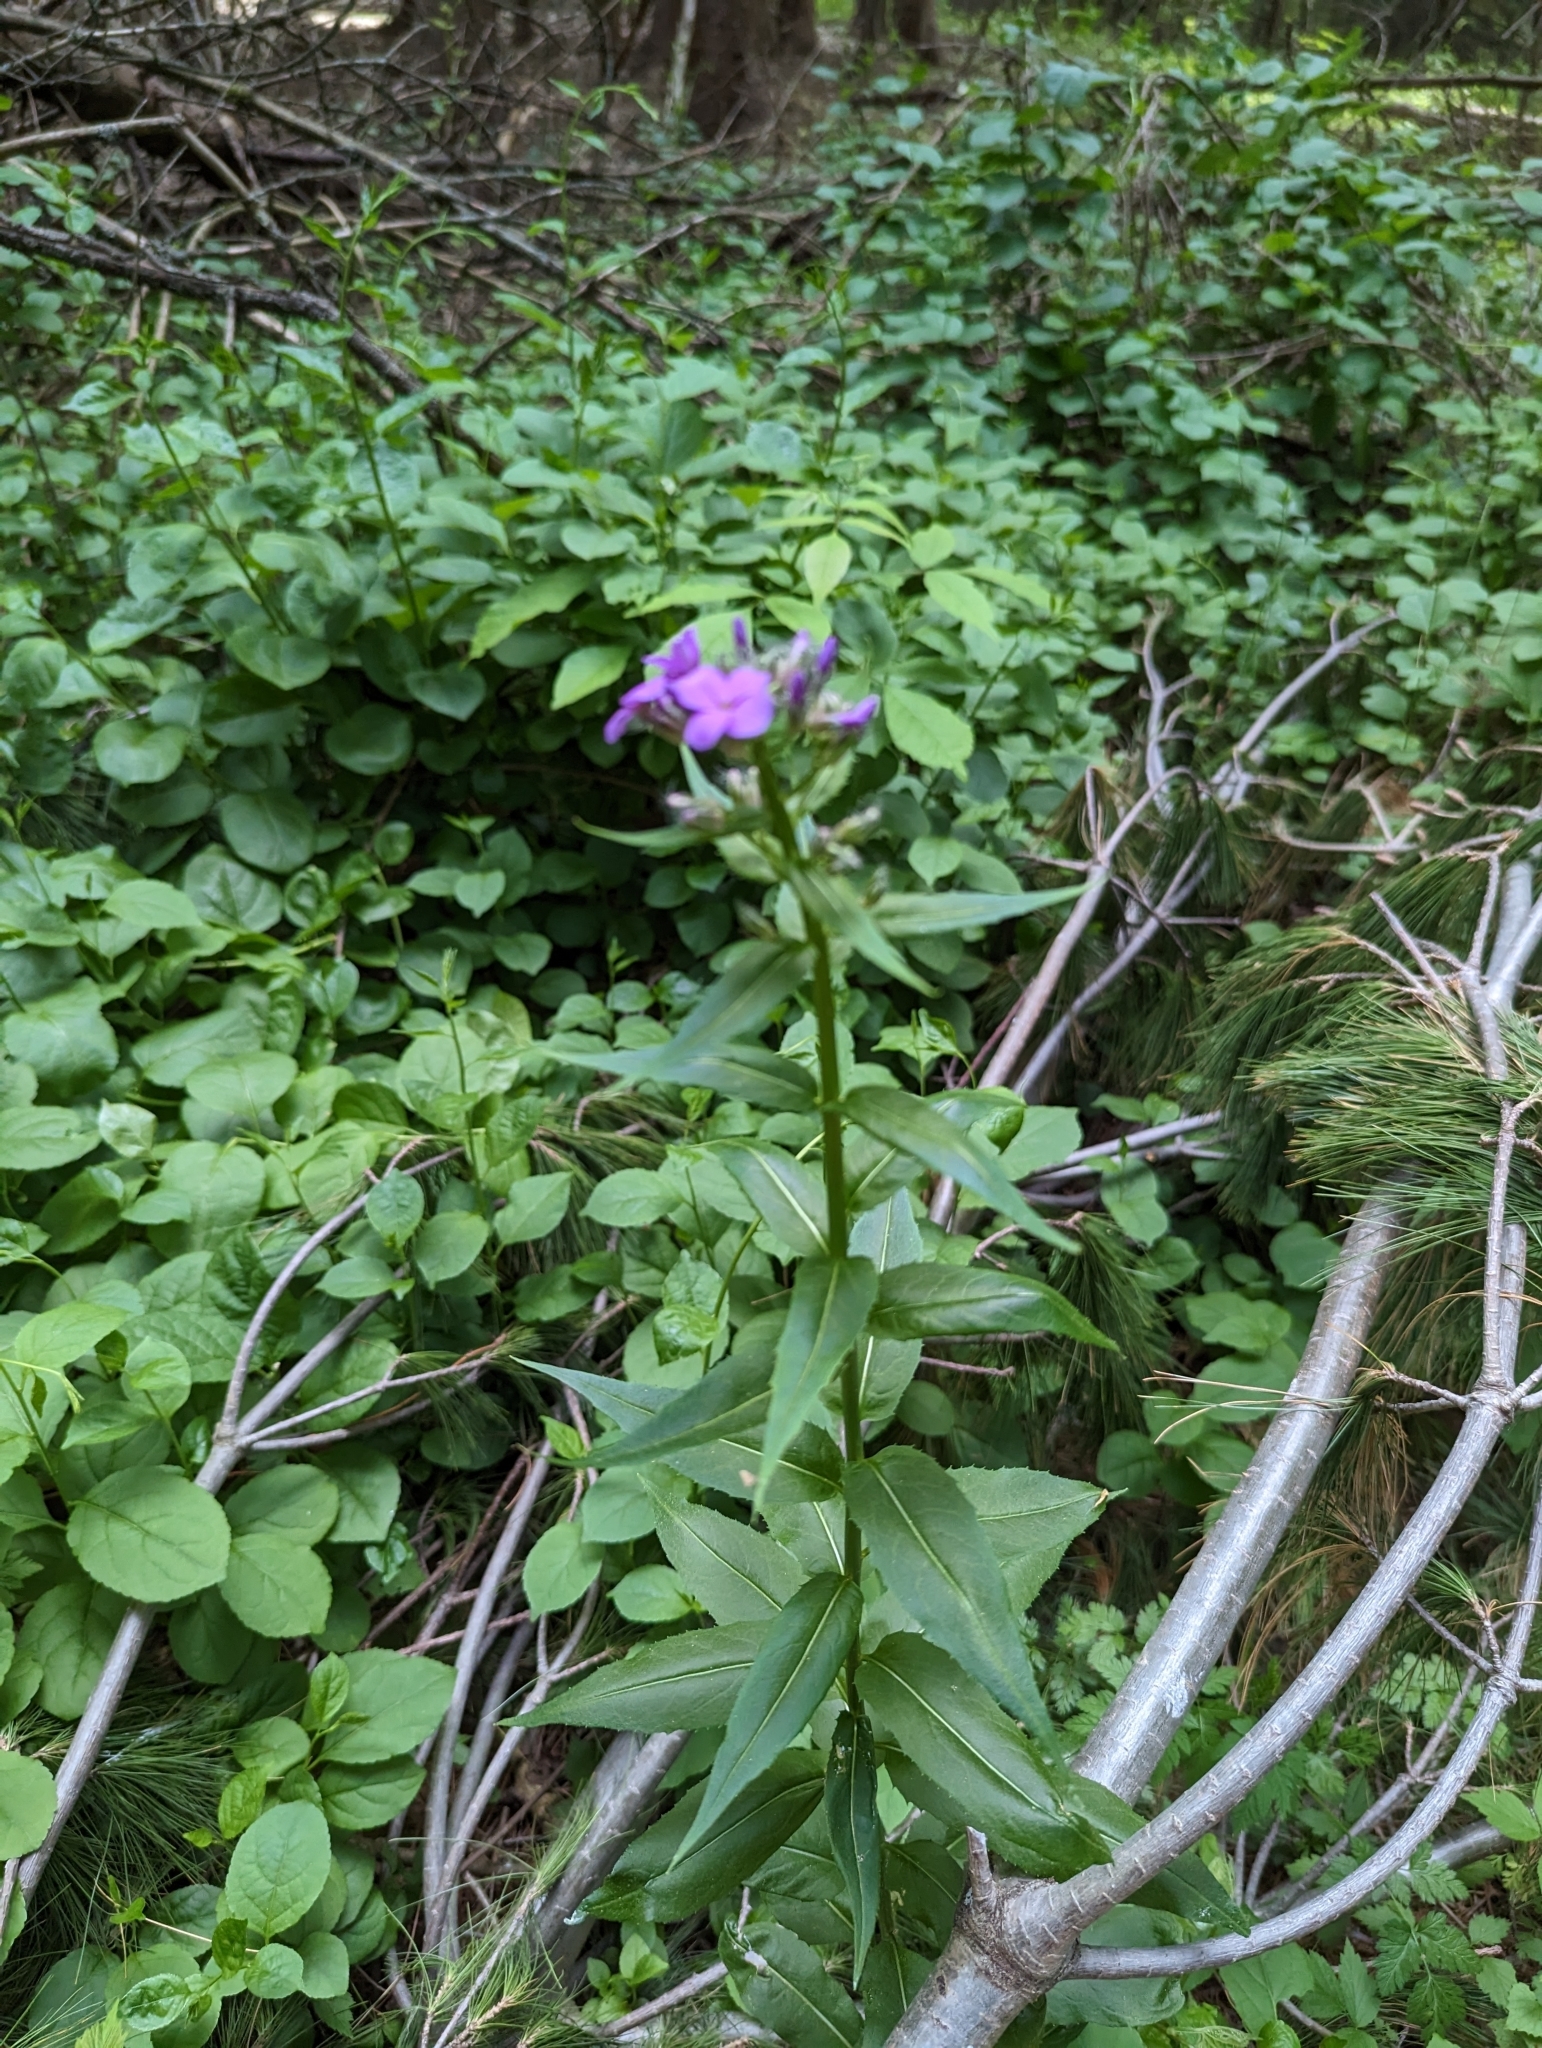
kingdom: Plantae
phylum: Tracheophyta
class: Magnoliopsida
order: Brassicales
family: Brassicaceae
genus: Hesperis
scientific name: Hesperis matronalis
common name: Dame's-violet
